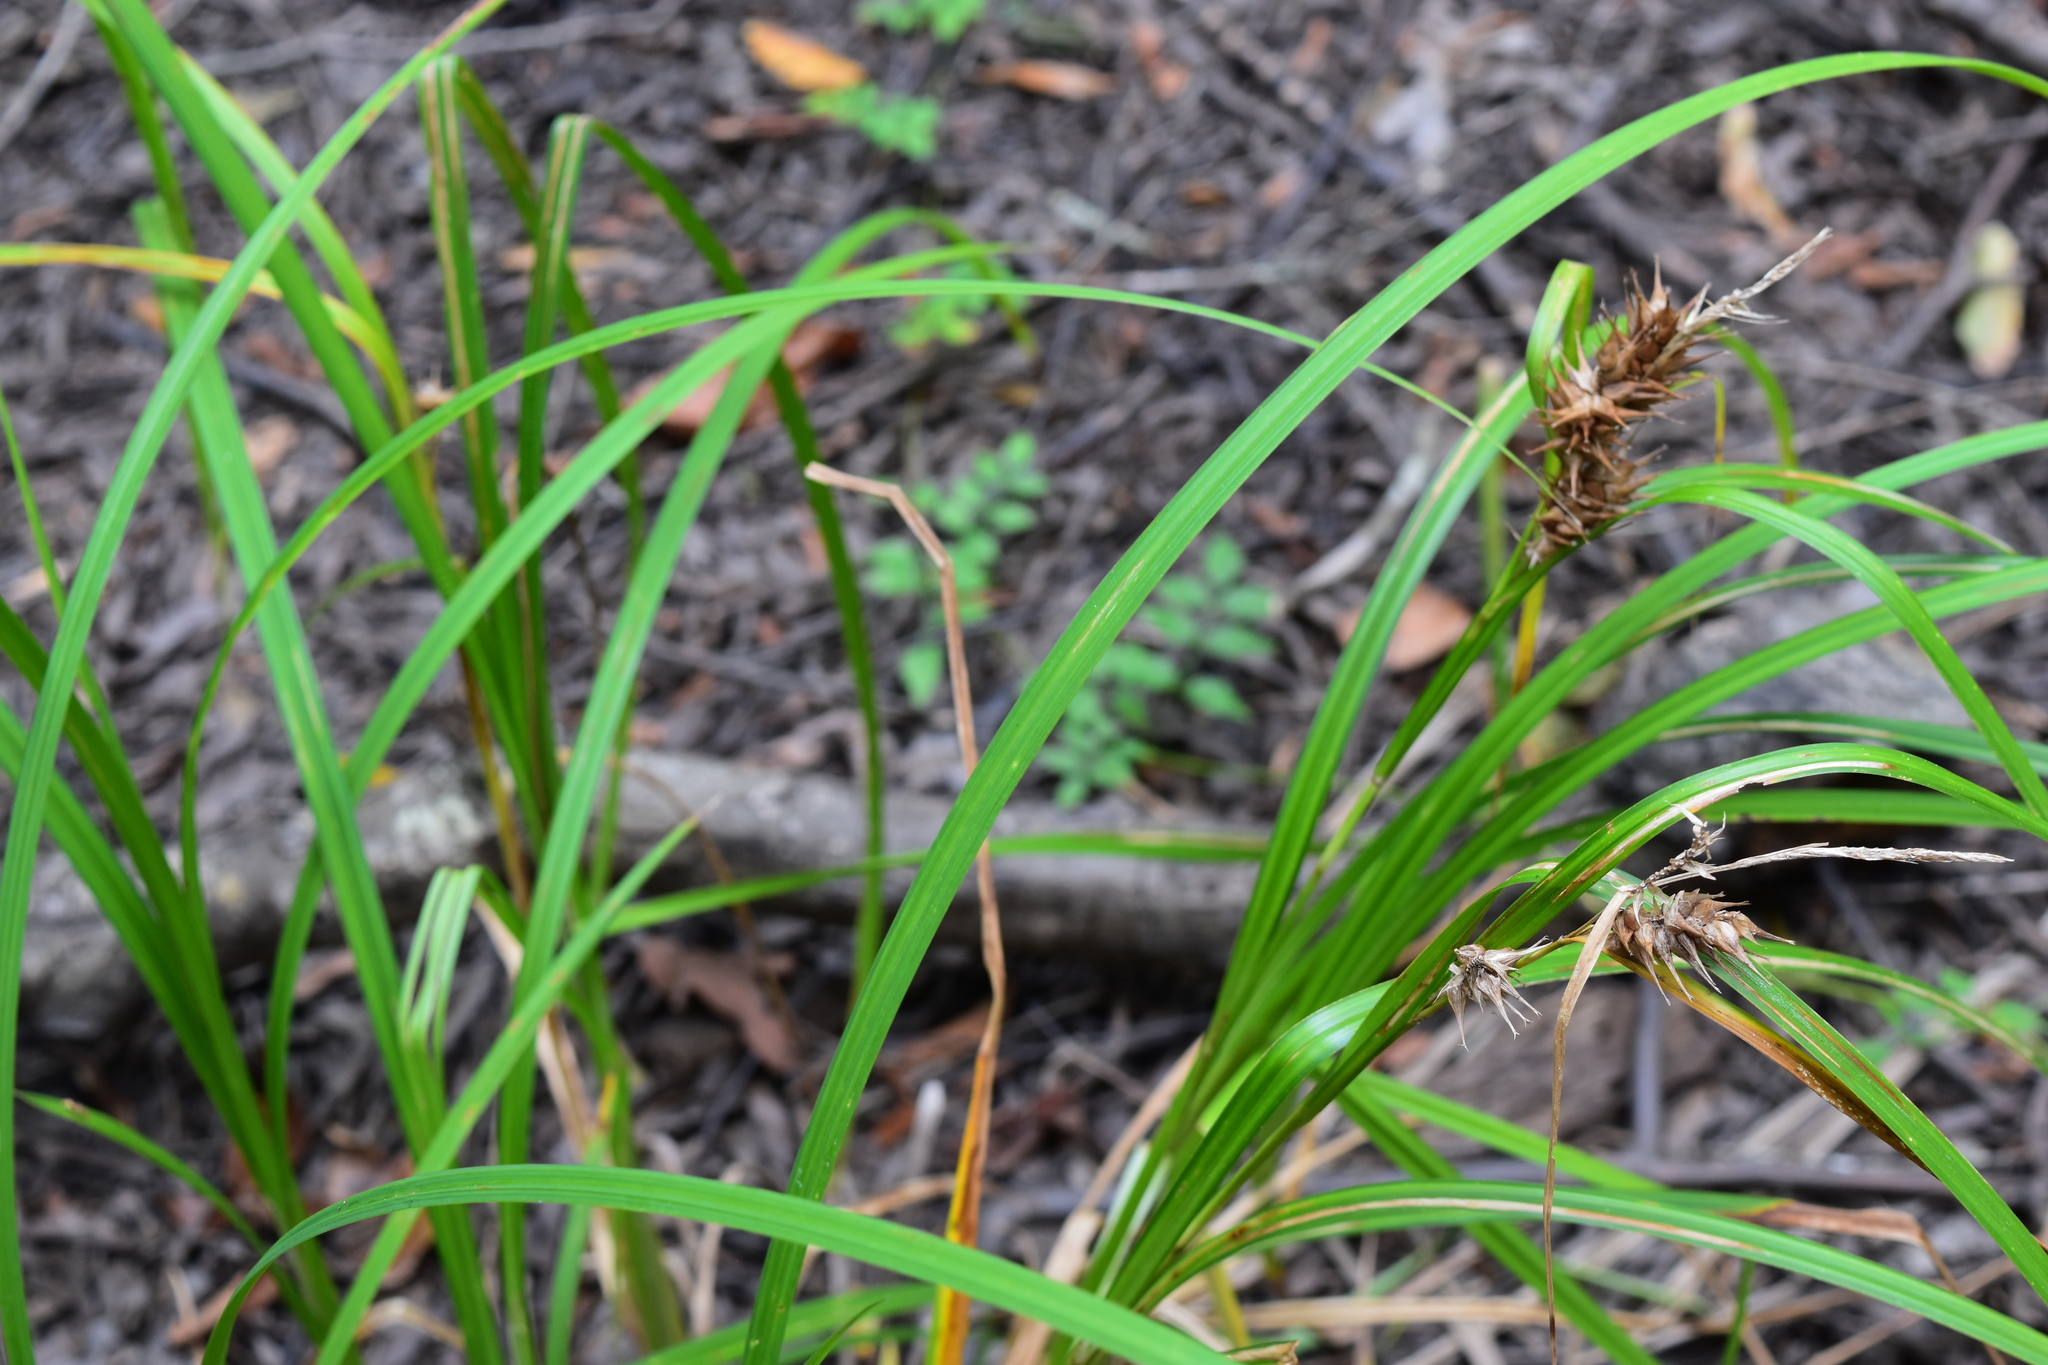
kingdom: Plantae
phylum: Tracheophyta
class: Liliopsida
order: Poales
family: Cyperaceae
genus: Carex
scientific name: Carex lupulina
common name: Hop sedge
